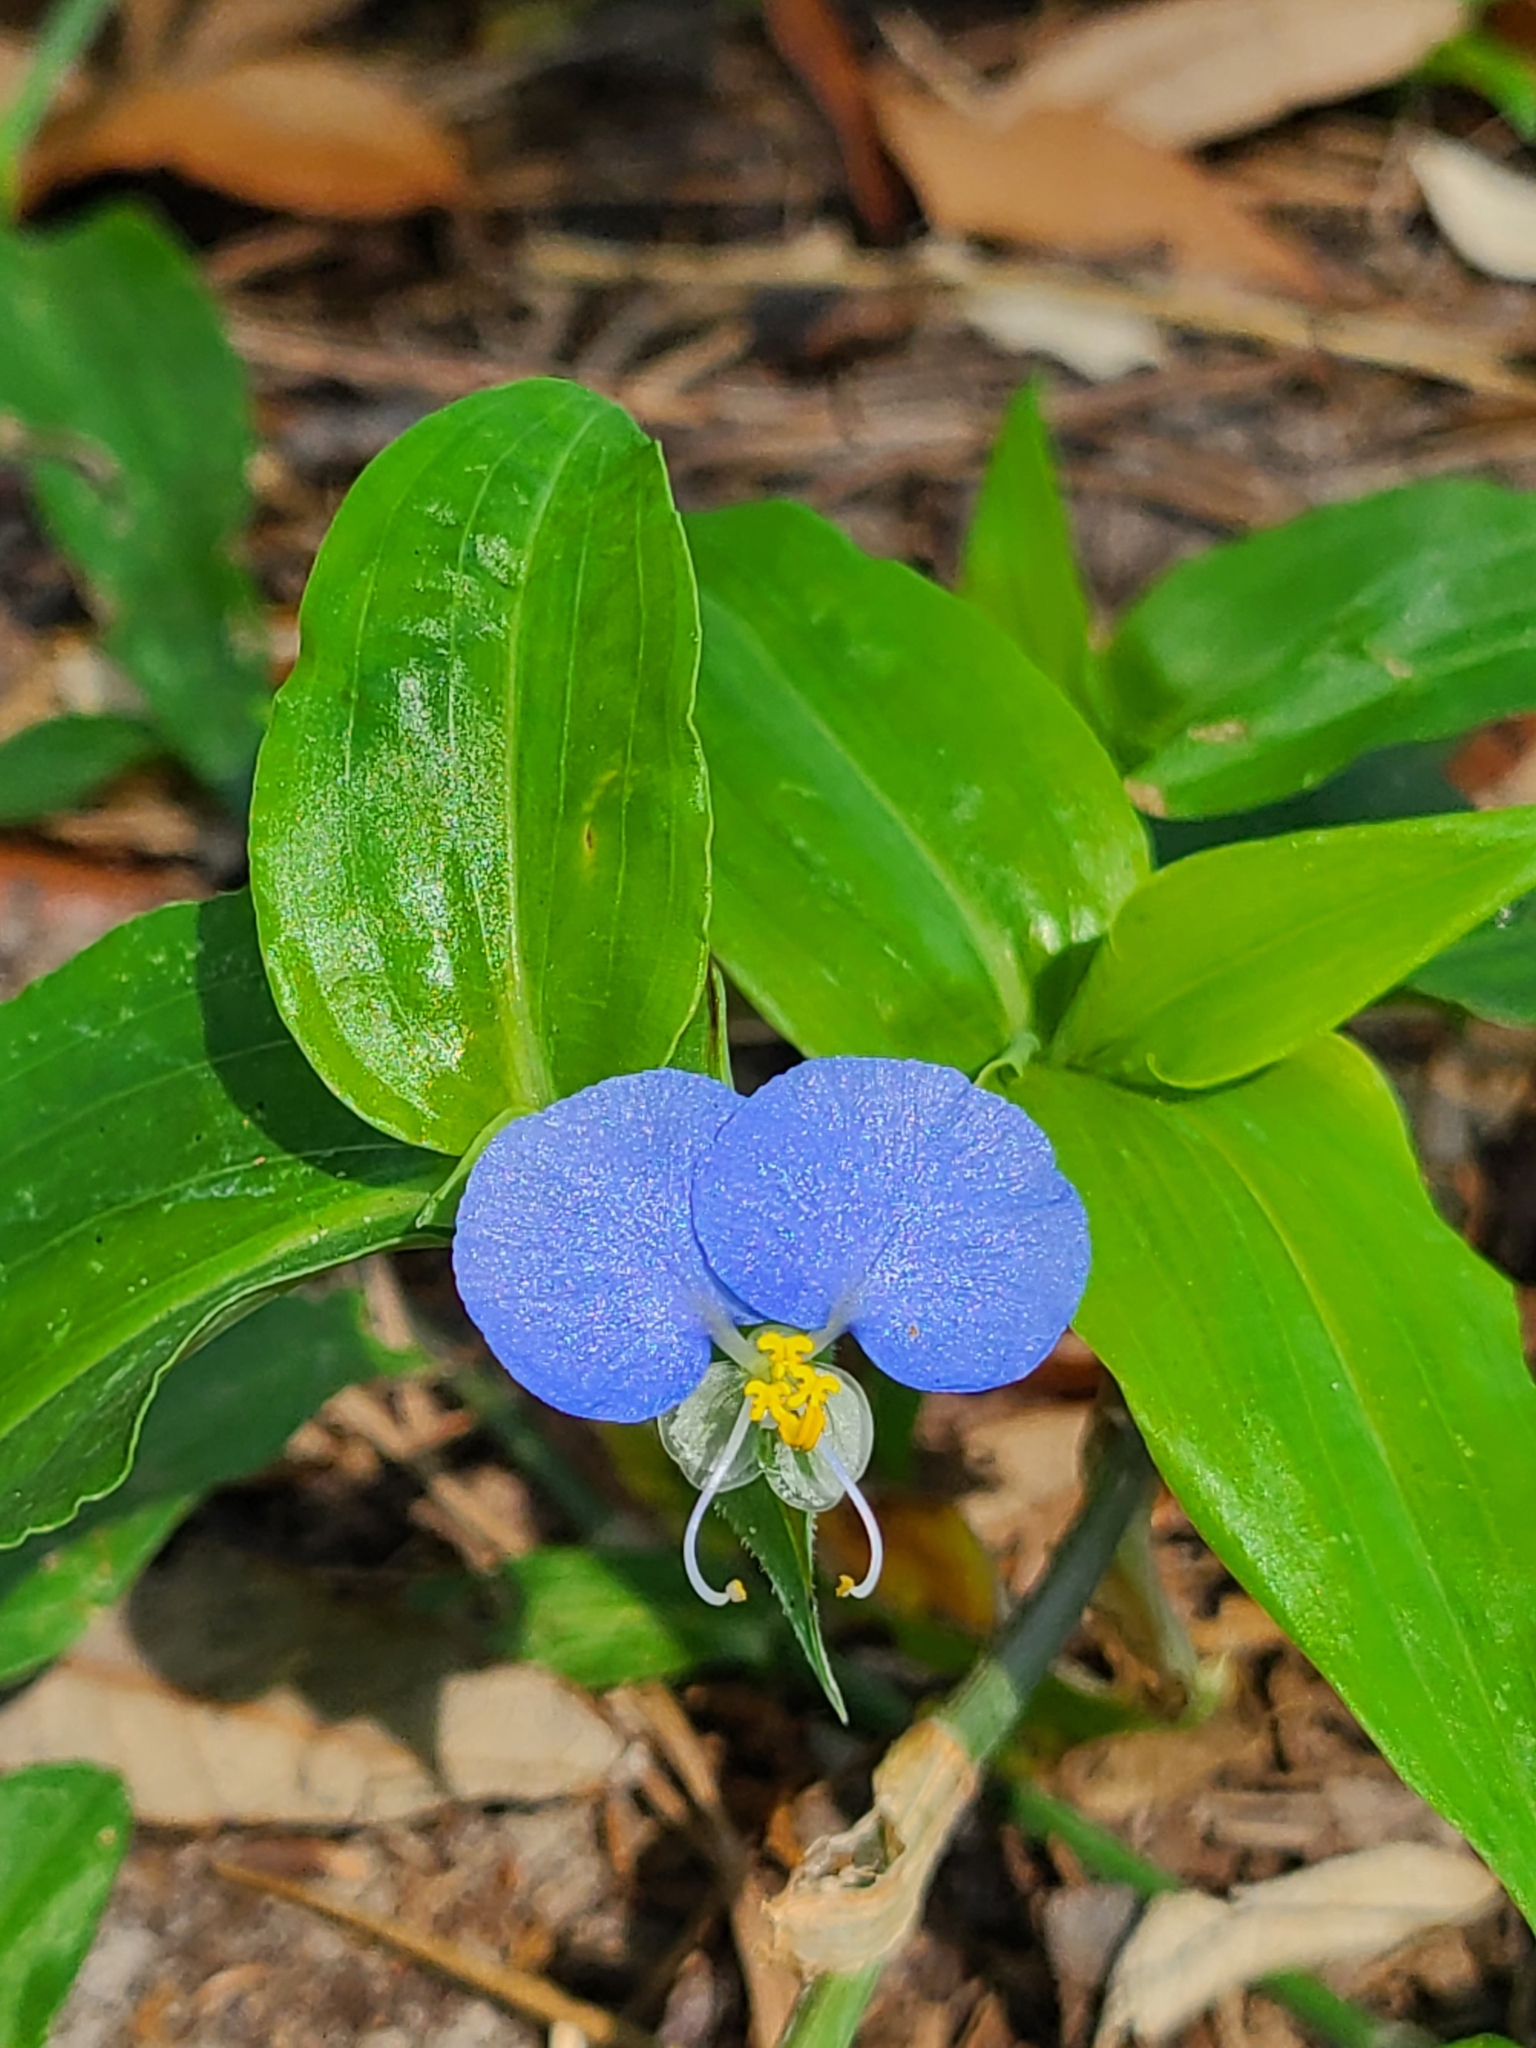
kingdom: Plantae
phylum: Tracheophyta
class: Liliopsida
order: Commelinales
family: Commelinaceae
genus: Commelina
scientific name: Commelina erecta
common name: Blousel blommetjie
